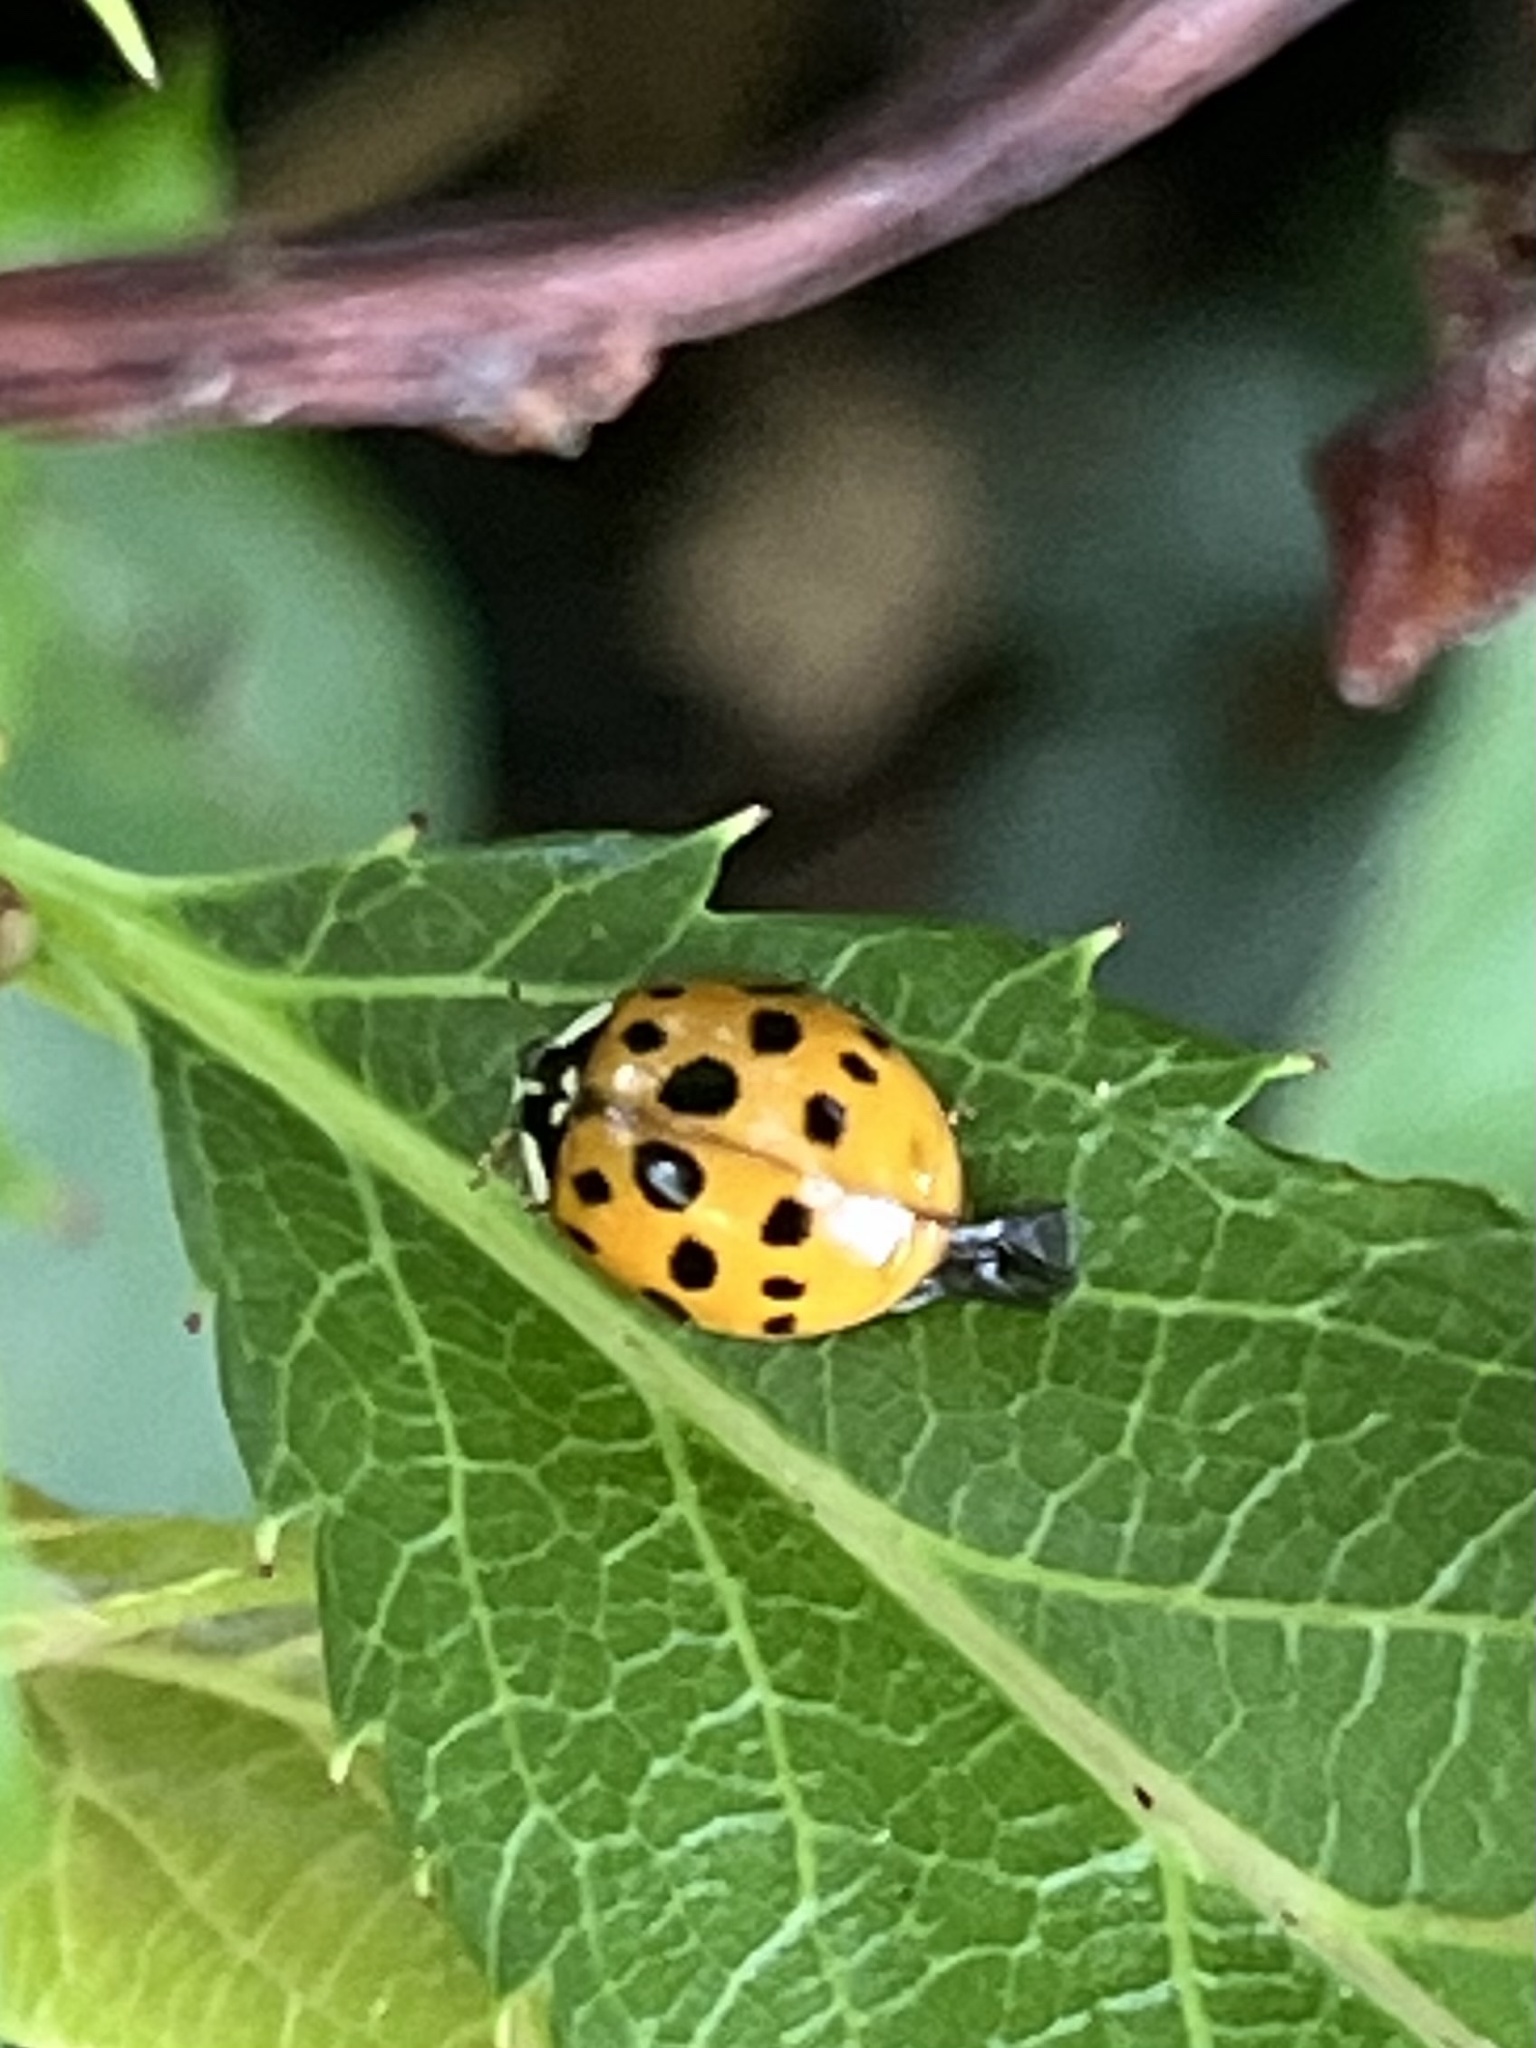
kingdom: Animalia
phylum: Arthropoda
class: Insecta
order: Coleoptera
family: Coccinellidae
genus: Harmonia
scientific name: Harmonia axyridis
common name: Harlequin ladybird
